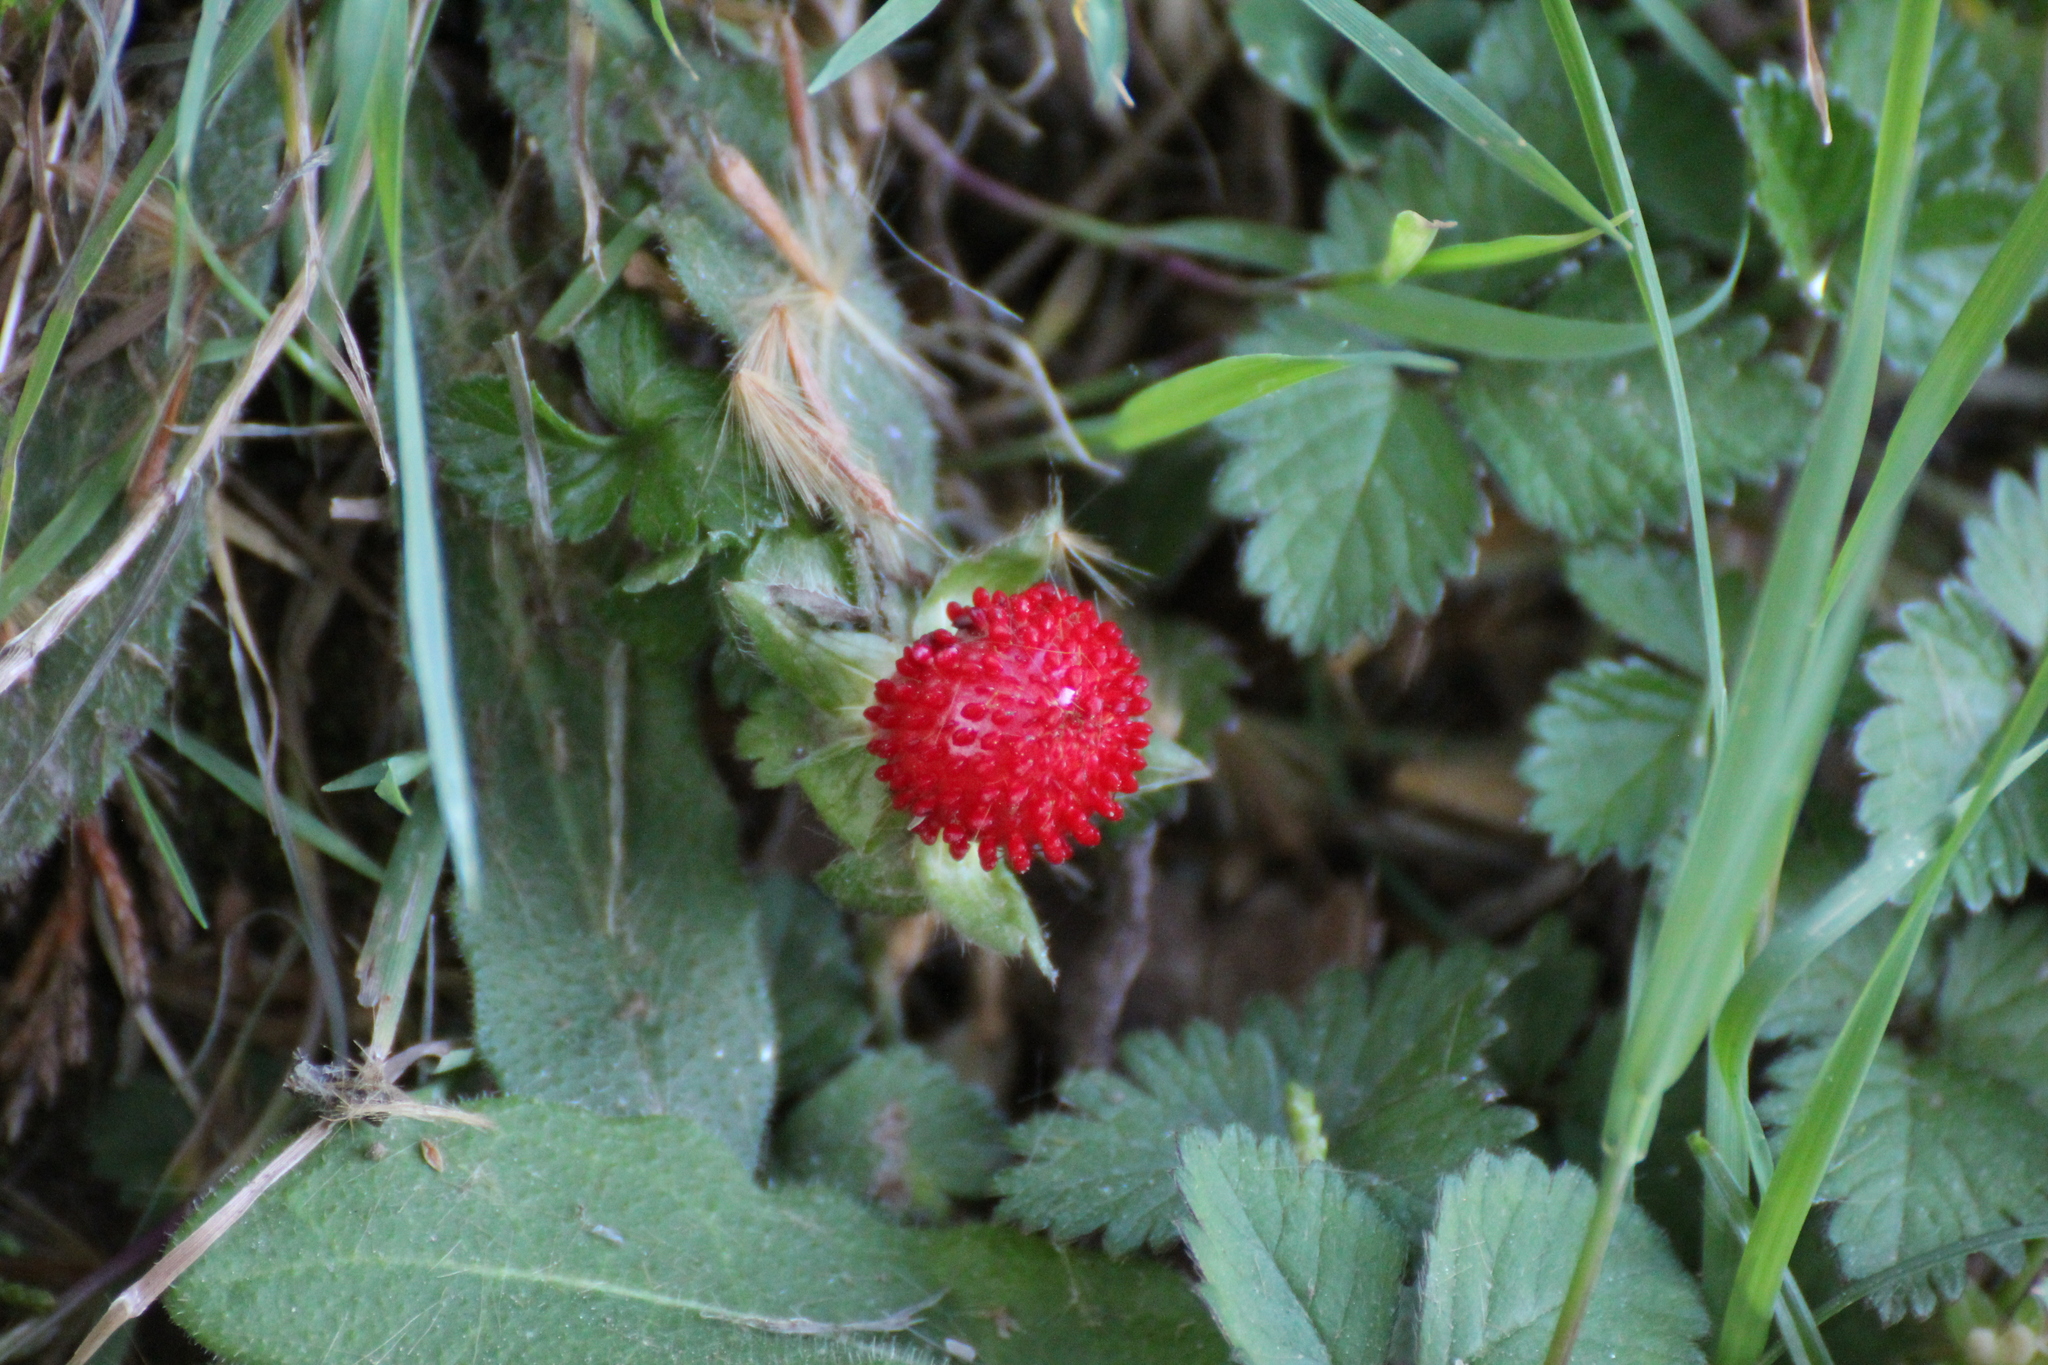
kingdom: Plantae
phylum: Tracheophyta
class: Magnoliopsida
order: Rosales
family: Rosaceae
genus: Potentilla
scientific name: Potentilla indica
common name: Yellow-flowered strawberry
